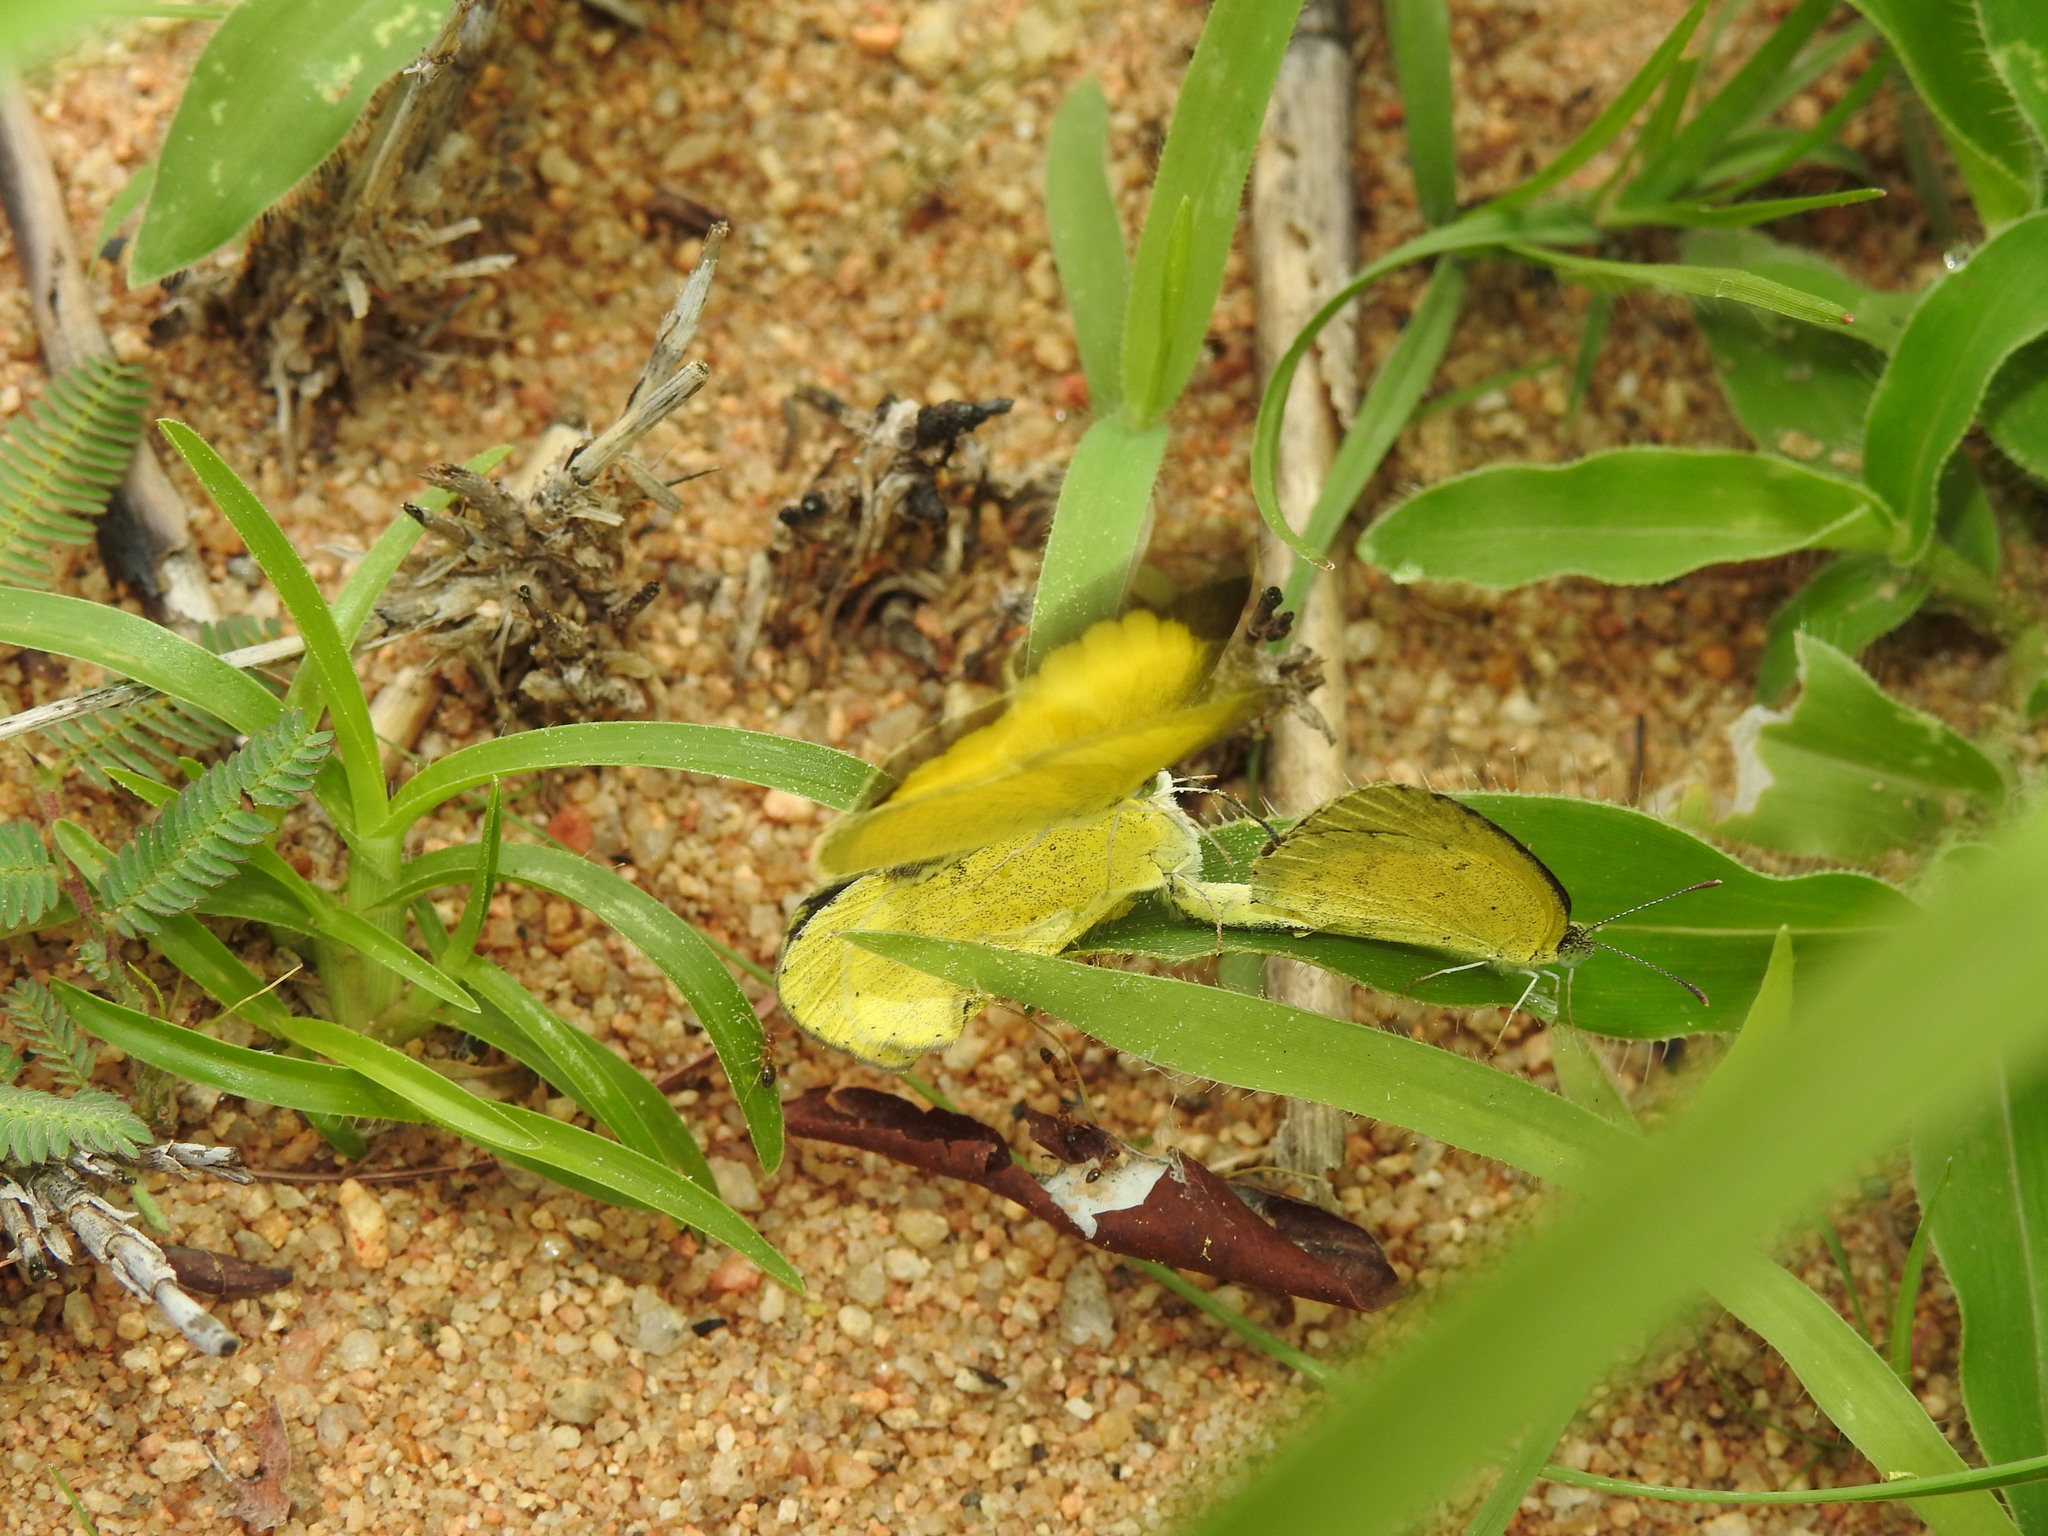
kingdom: Animalia
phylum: Arthropoda
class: Insecta
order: Lepidoptera
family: Pieridae
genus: Eurema
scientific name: Eurema brigitta
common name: Small grass yellow
